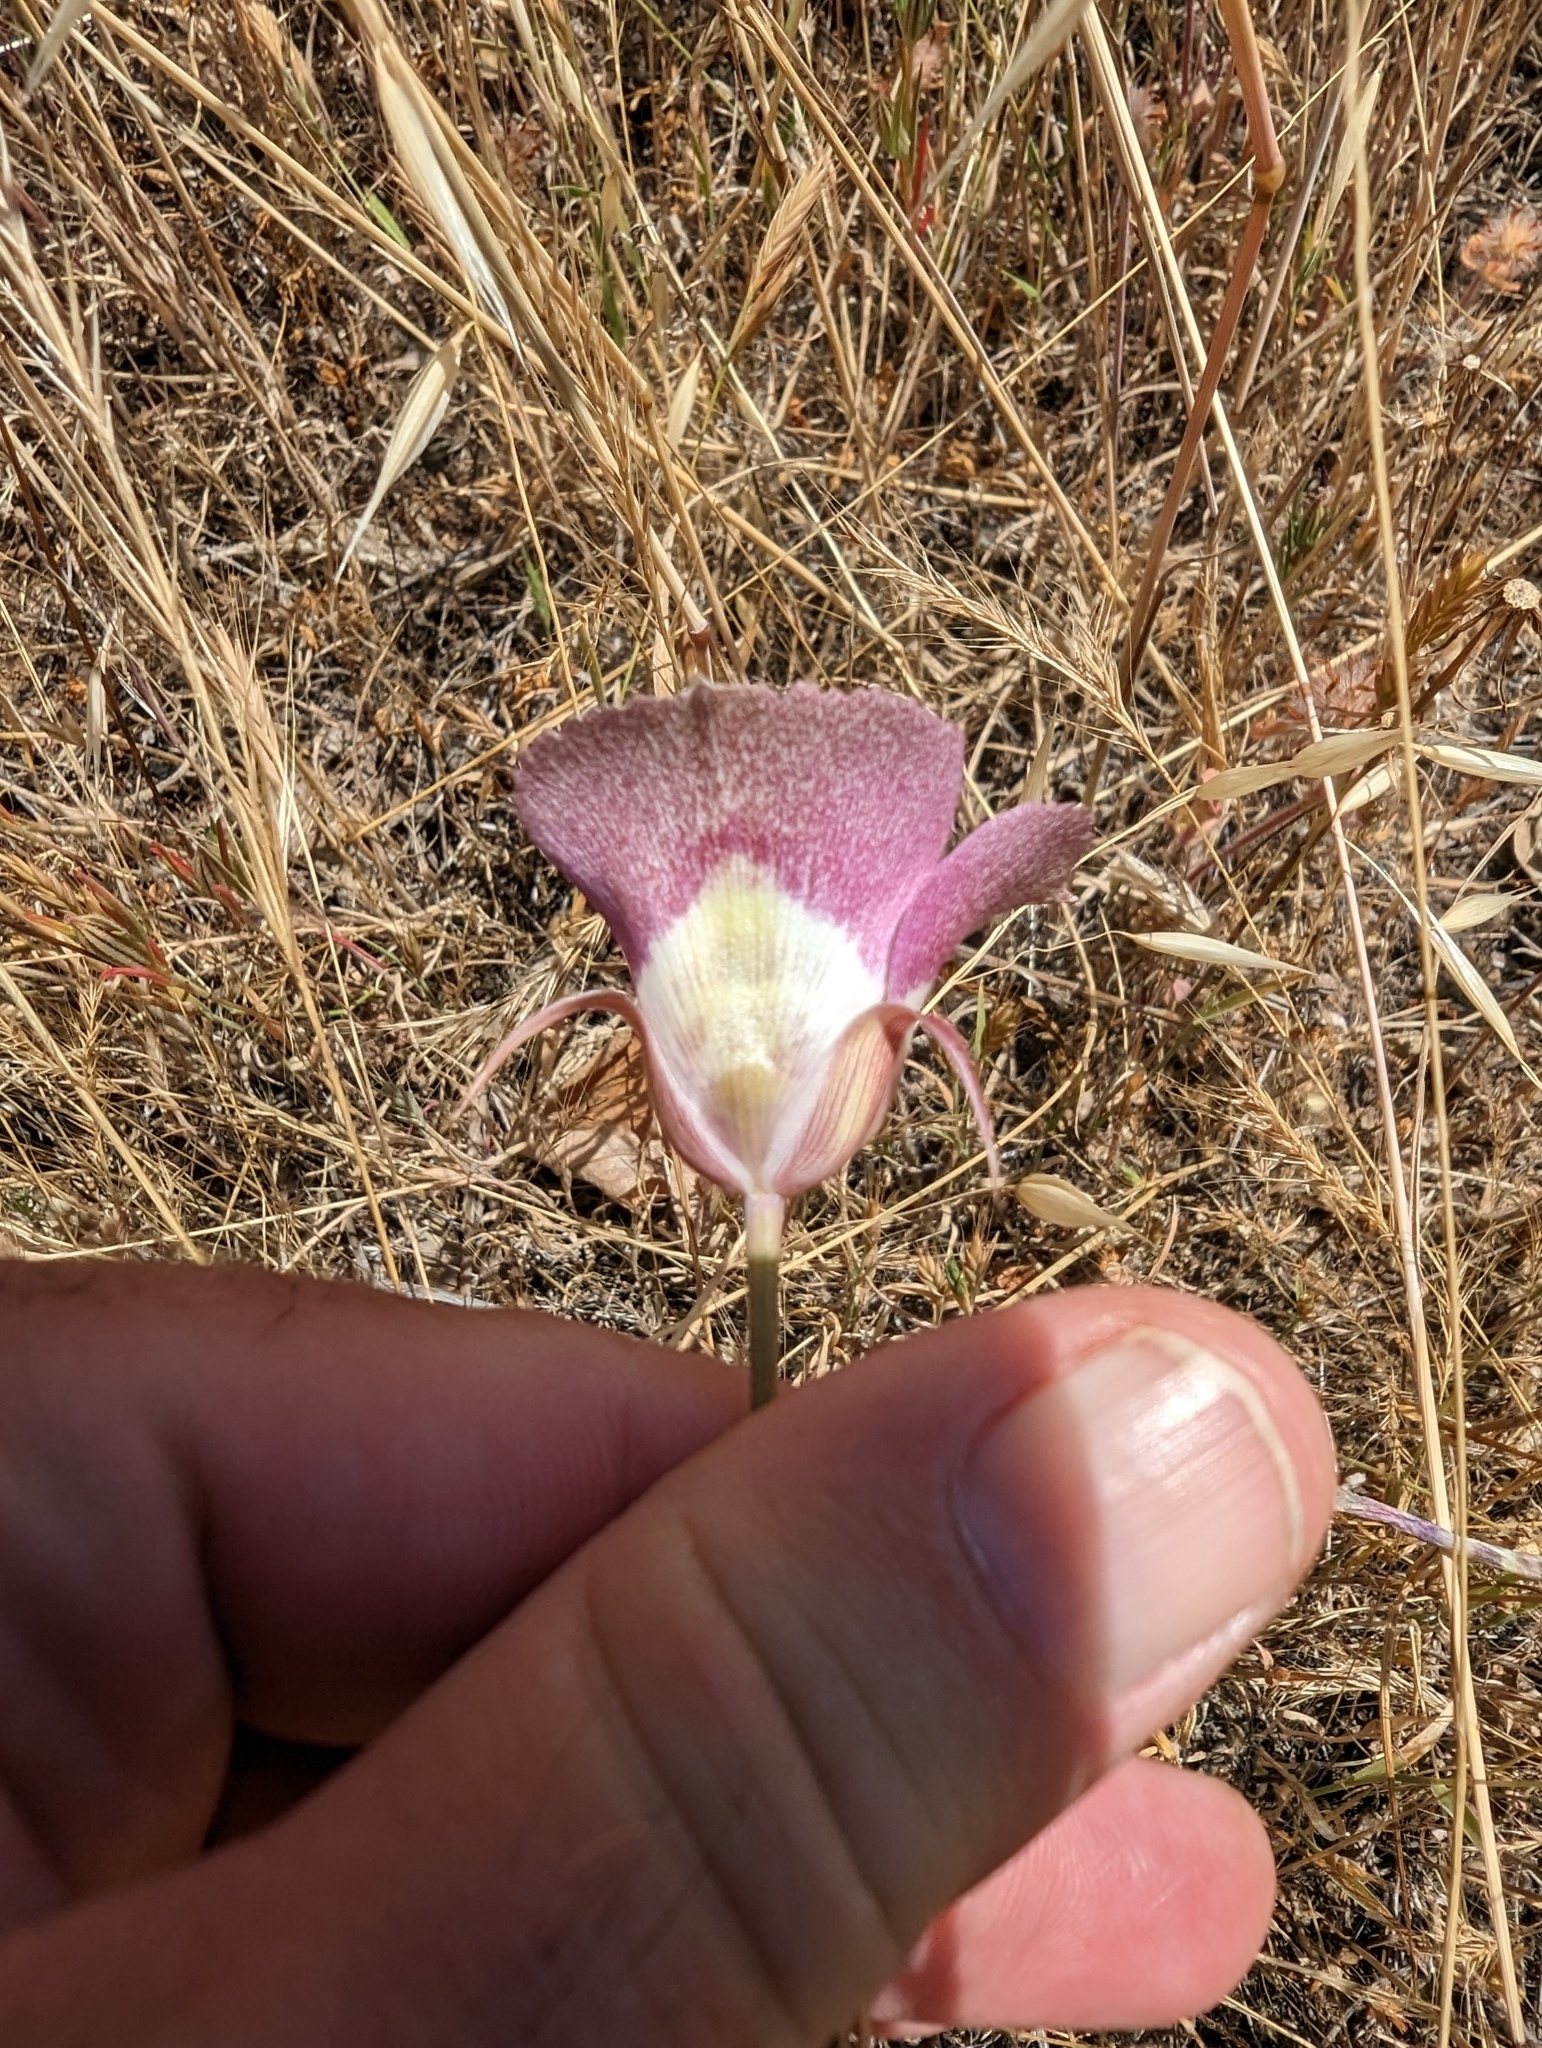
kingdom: Plantae
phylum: Tracheophyta
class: Liliopsida
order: Liliales
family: Liliaceae
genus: Calochortus
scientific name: Calochortus argillosus
